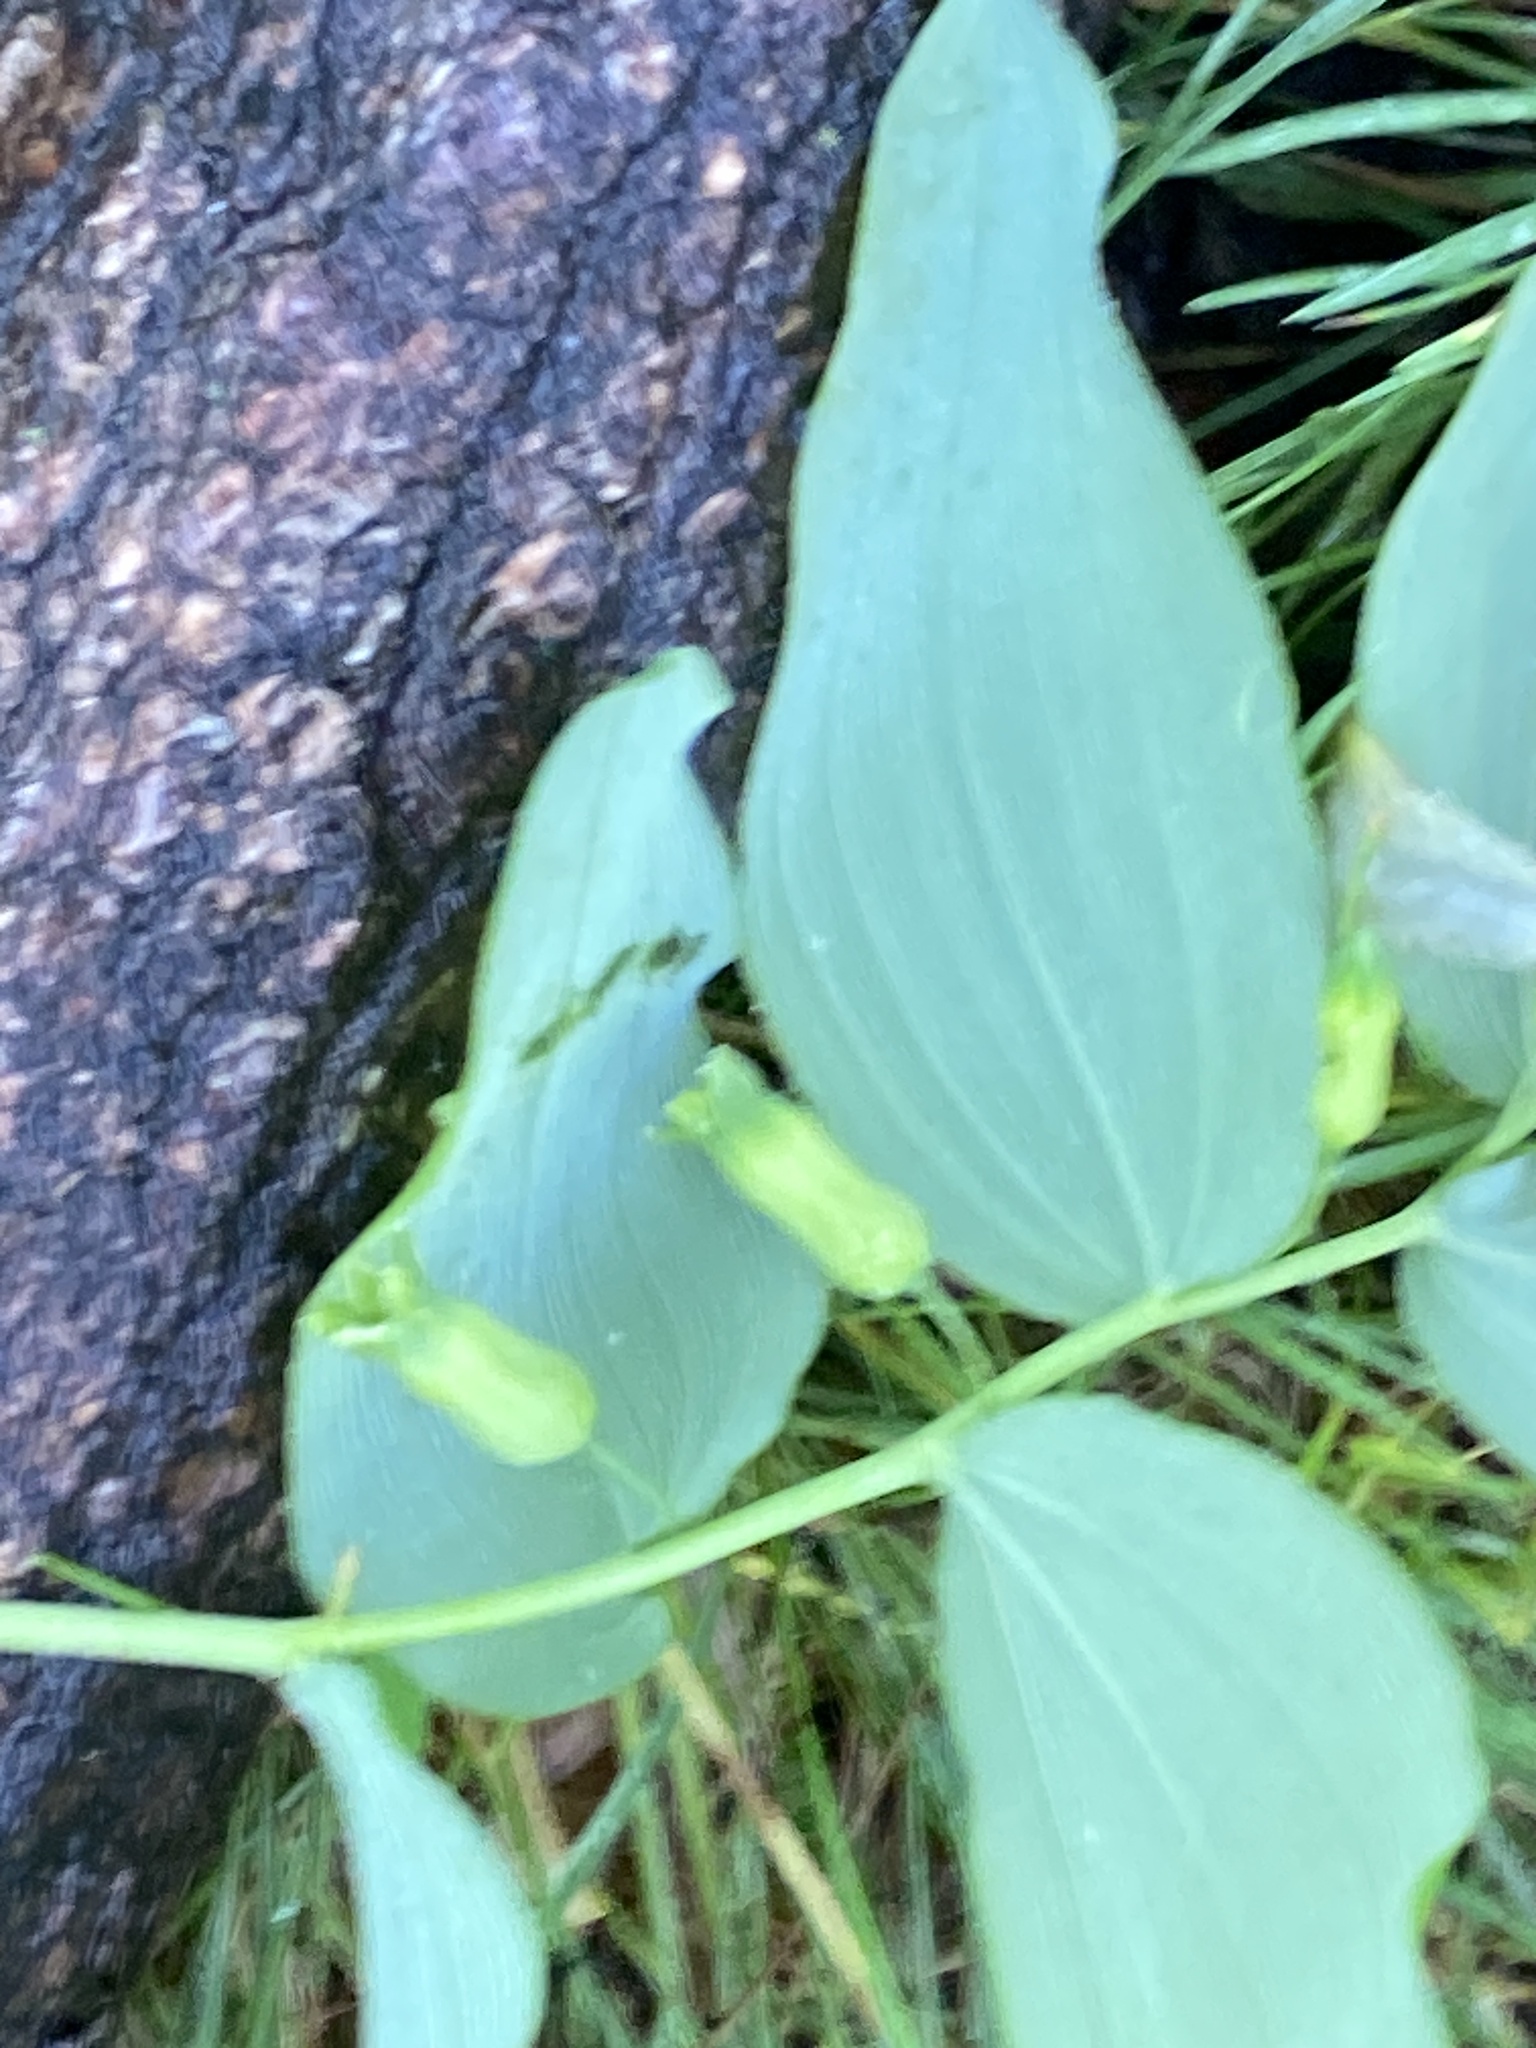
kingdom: Plantae
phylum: Tracheophyta
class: Liliopsida
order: Asparagales
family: Asparagaceae
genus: Polygonatum
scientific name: Polygonatum pubescens
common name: Downy solomon's seal
